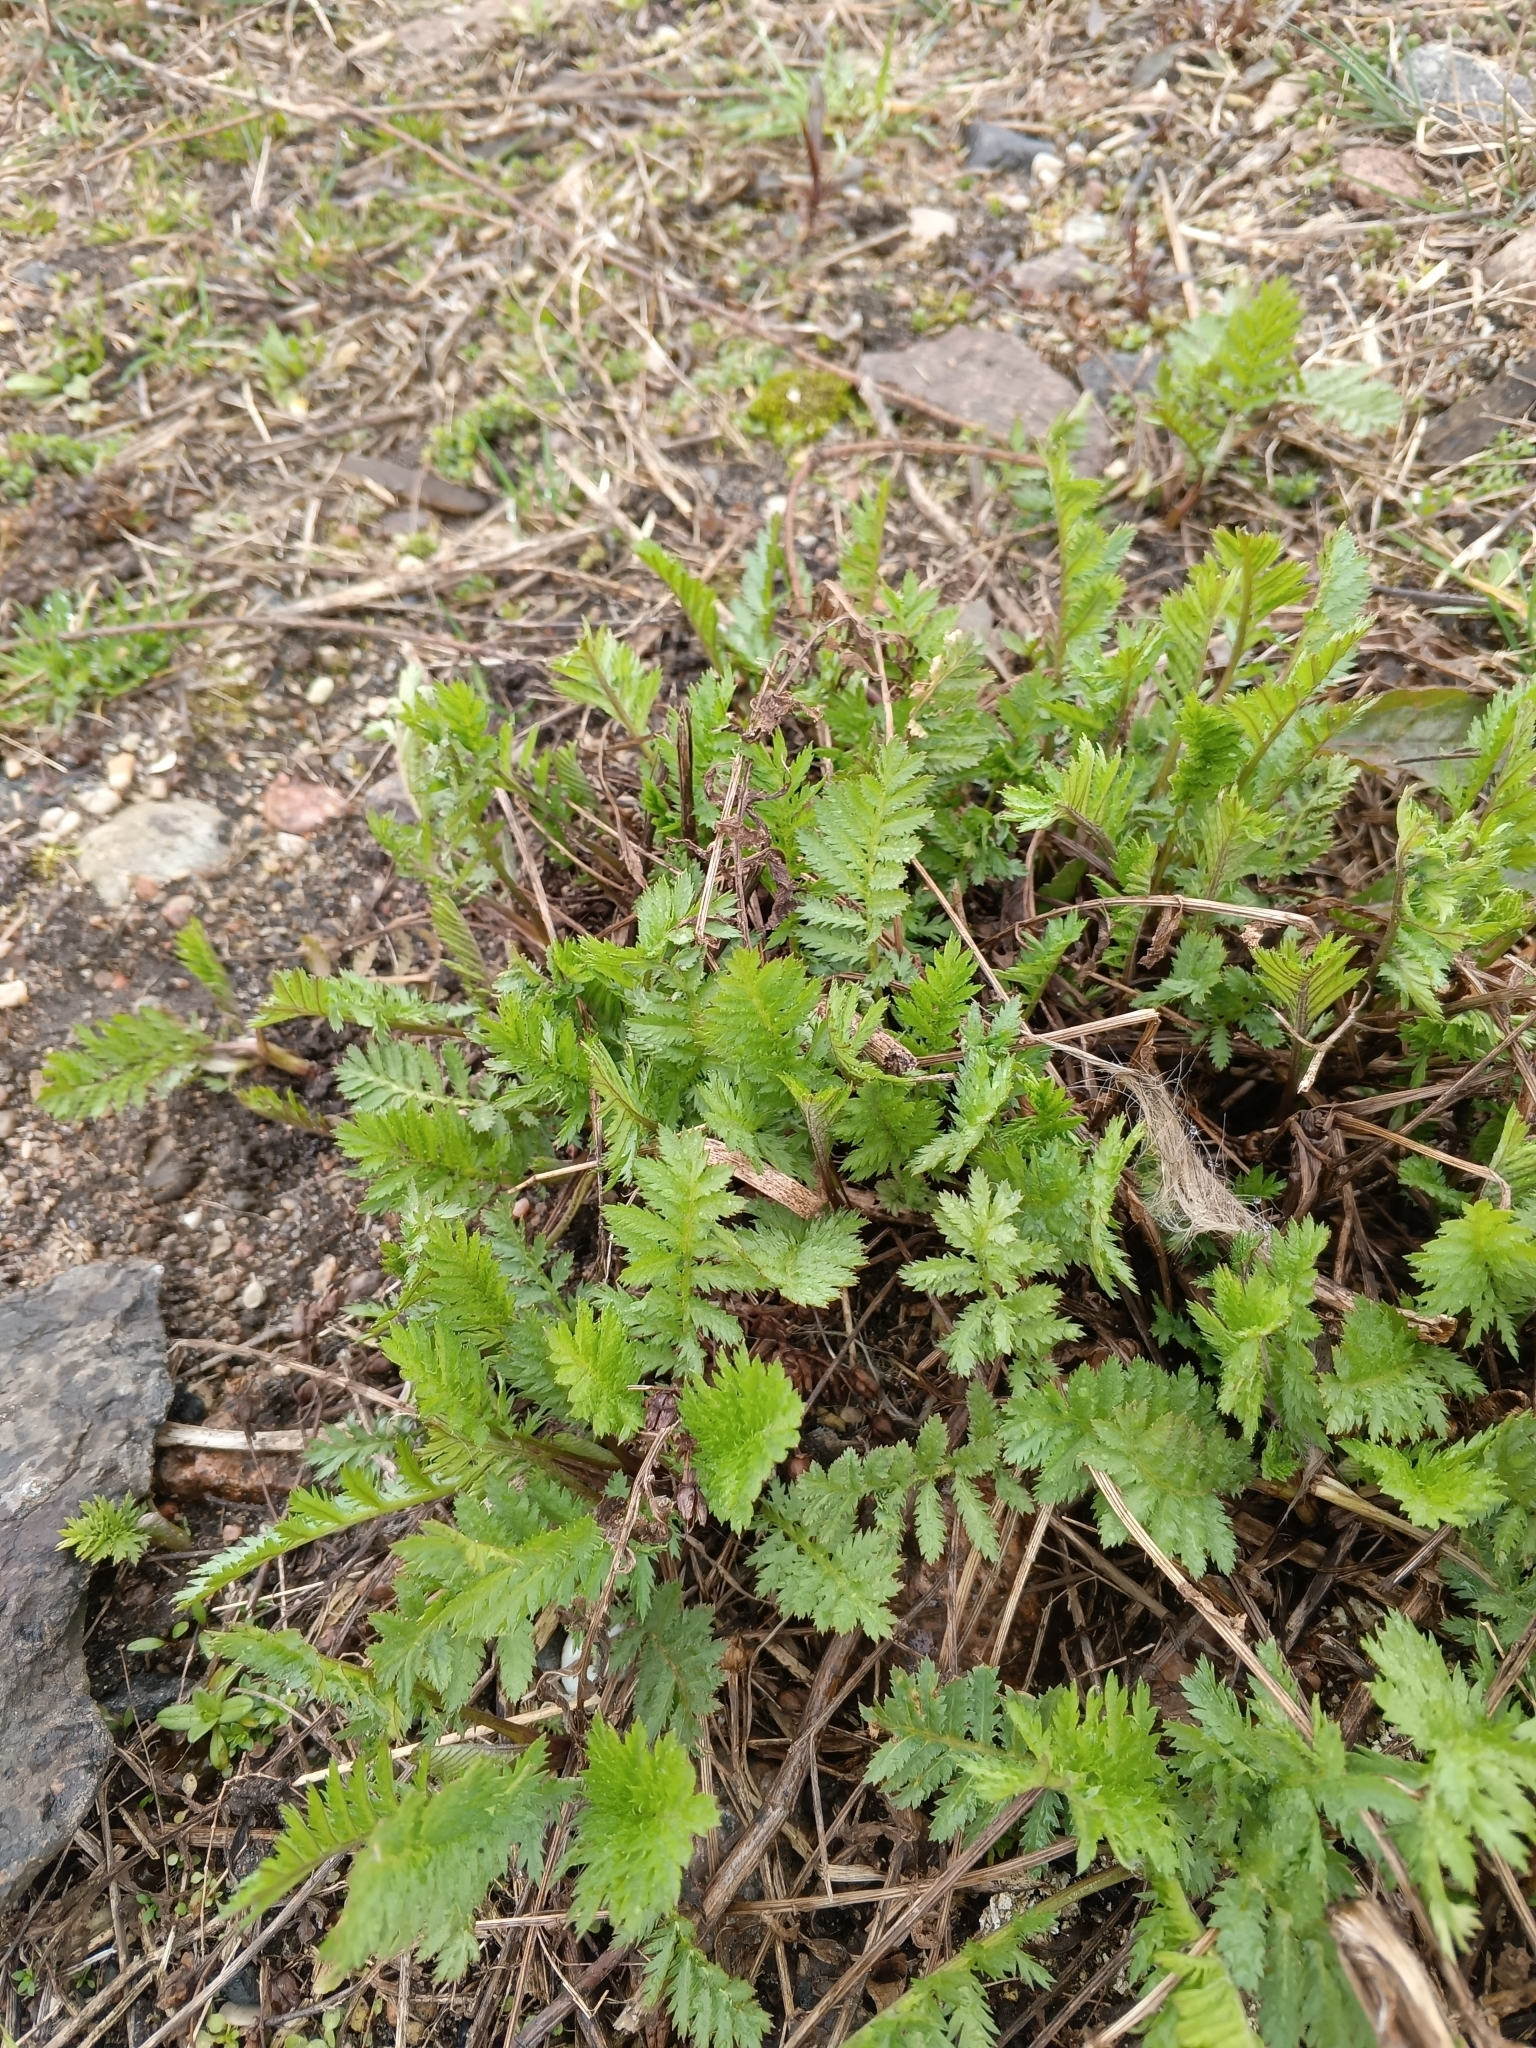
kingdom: Plantae
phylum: Tracheophyta
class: Magnoliopsida
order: Asterales
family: Asteraceae
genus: Tanacetum
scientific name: Tanacetum vulgare
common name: Common tansy
